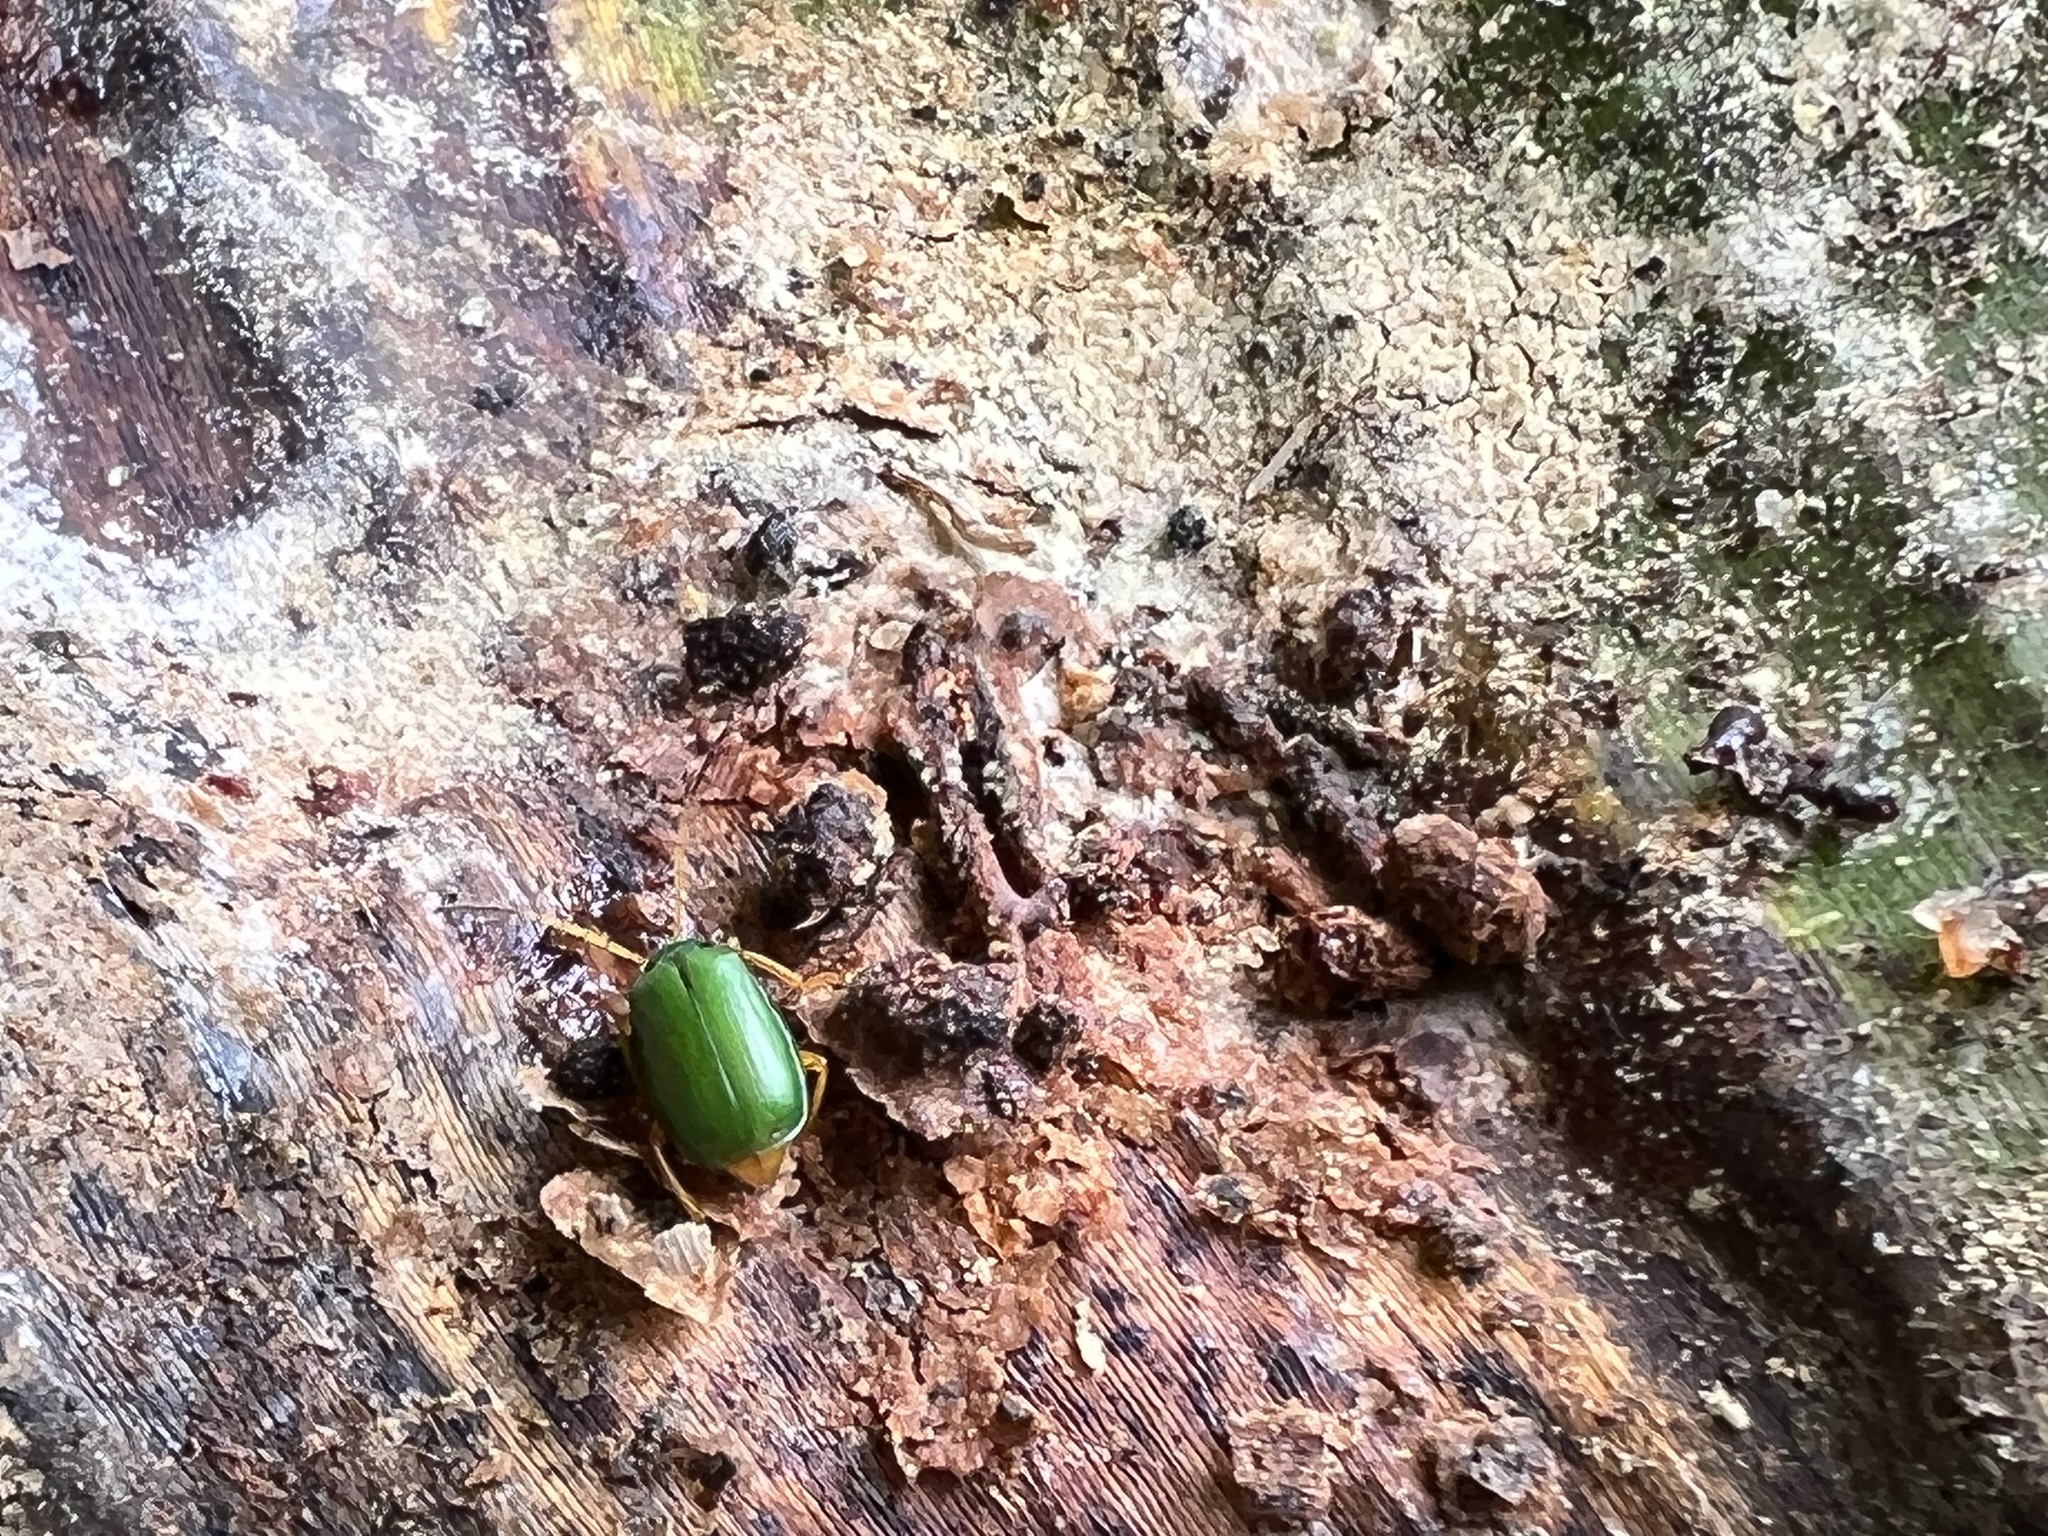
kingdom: Animalia
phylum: Arthropoda
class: Insecta
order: Coleoptera
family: Chrysomelidae
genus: Diabrotica
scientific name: Diabrotica
